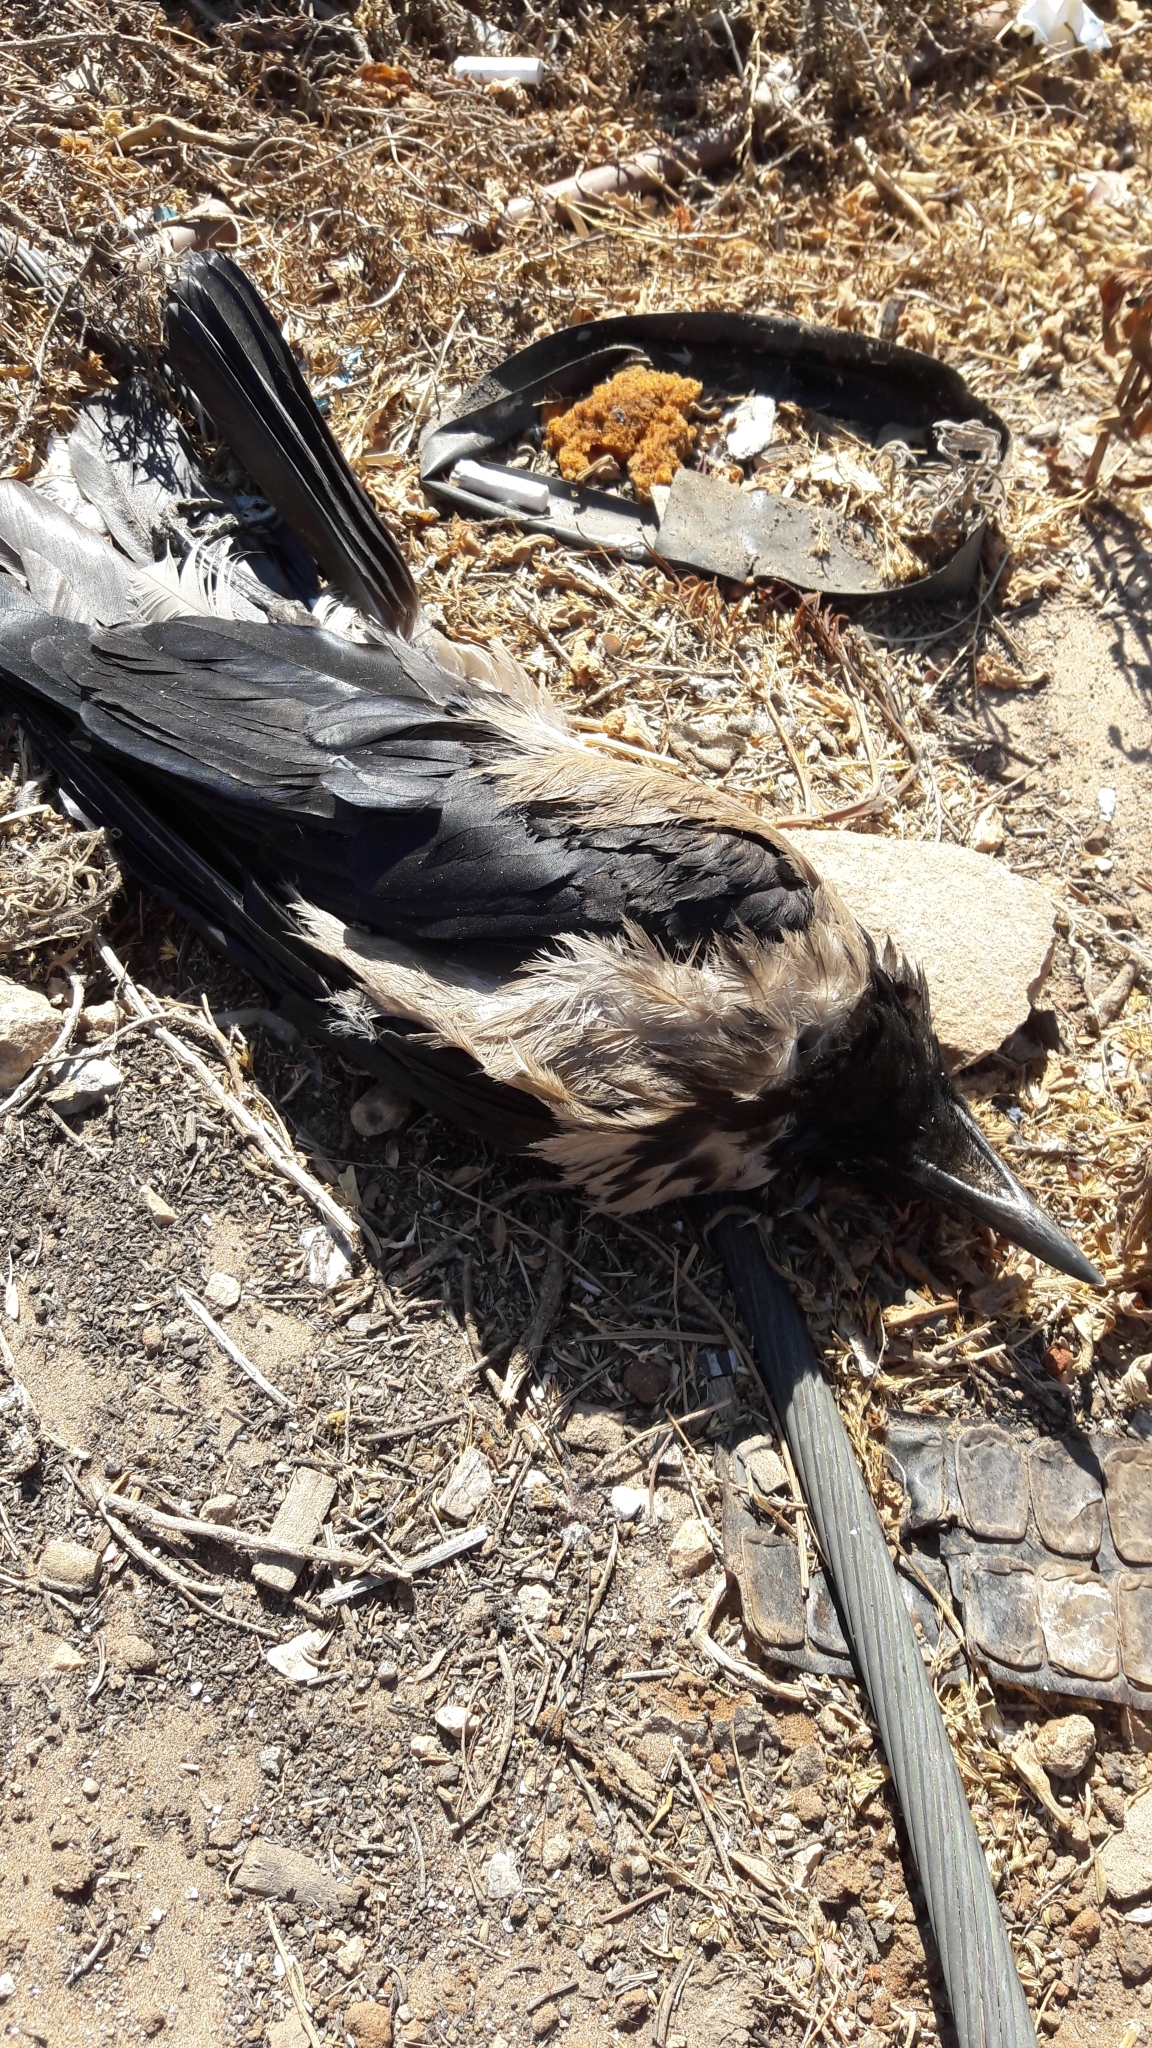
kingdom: Animalia
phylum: Chordata
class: Aves
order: Passeriformes
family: Corvidae
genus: Corvus
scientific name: Corvus cornix
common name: Hooded crow
